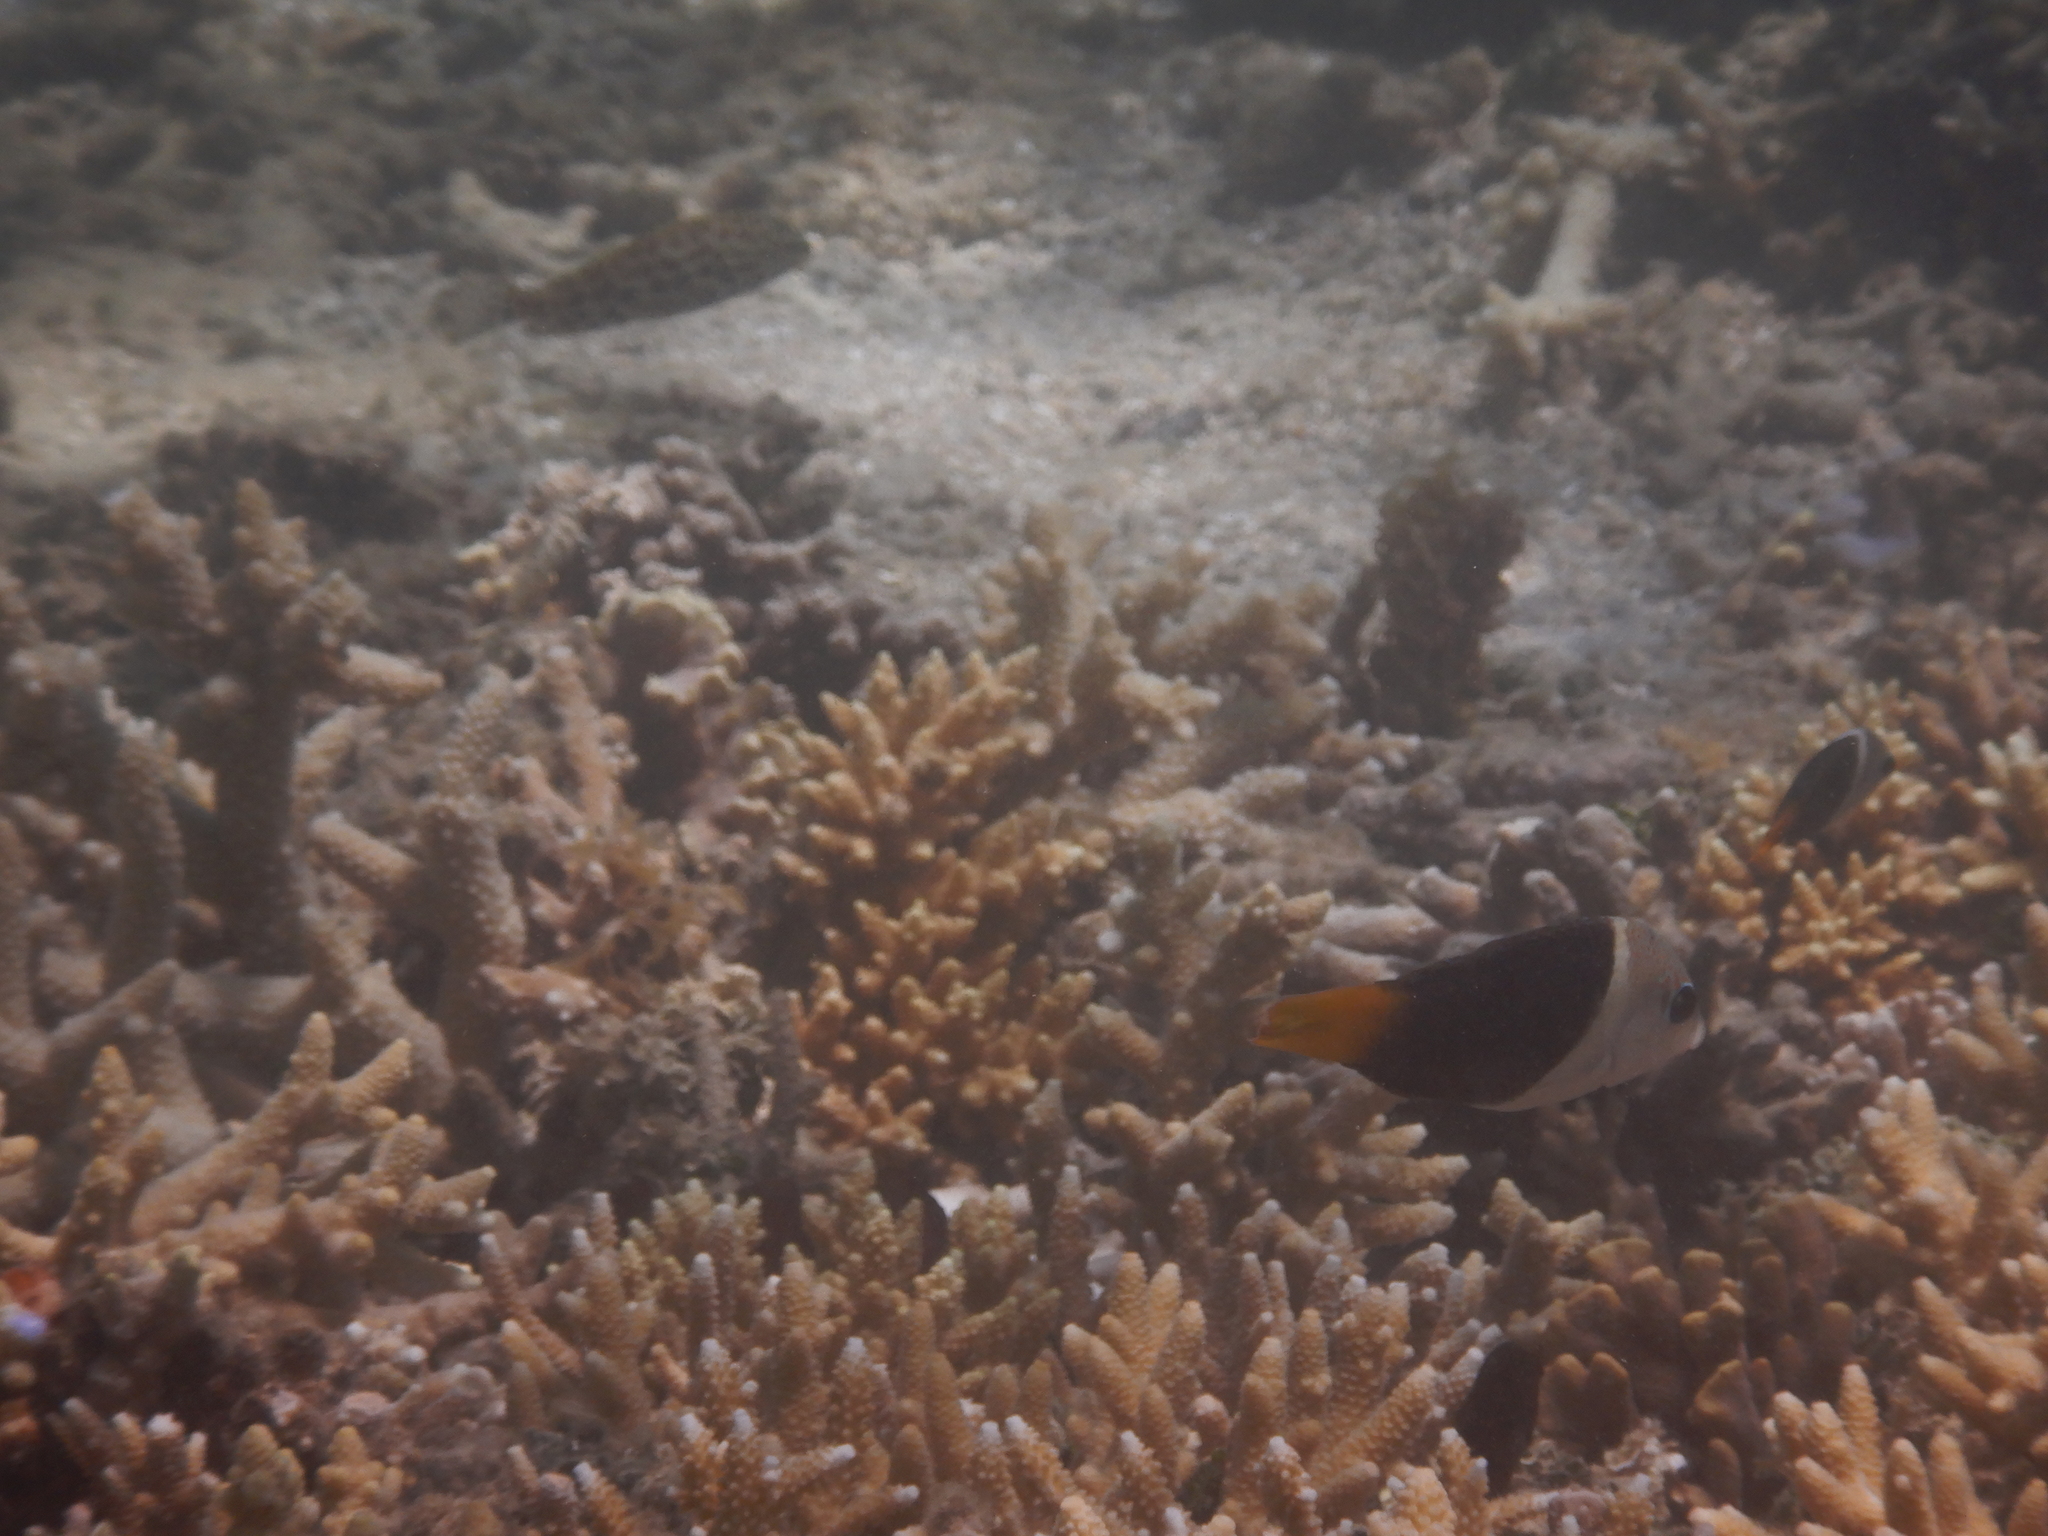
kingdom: Animalia
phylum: Chordata
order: Perciformes
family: Labridae
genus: Hemigymnus
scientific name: Hemigymnus melapterus
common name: Blackeye thicklip
